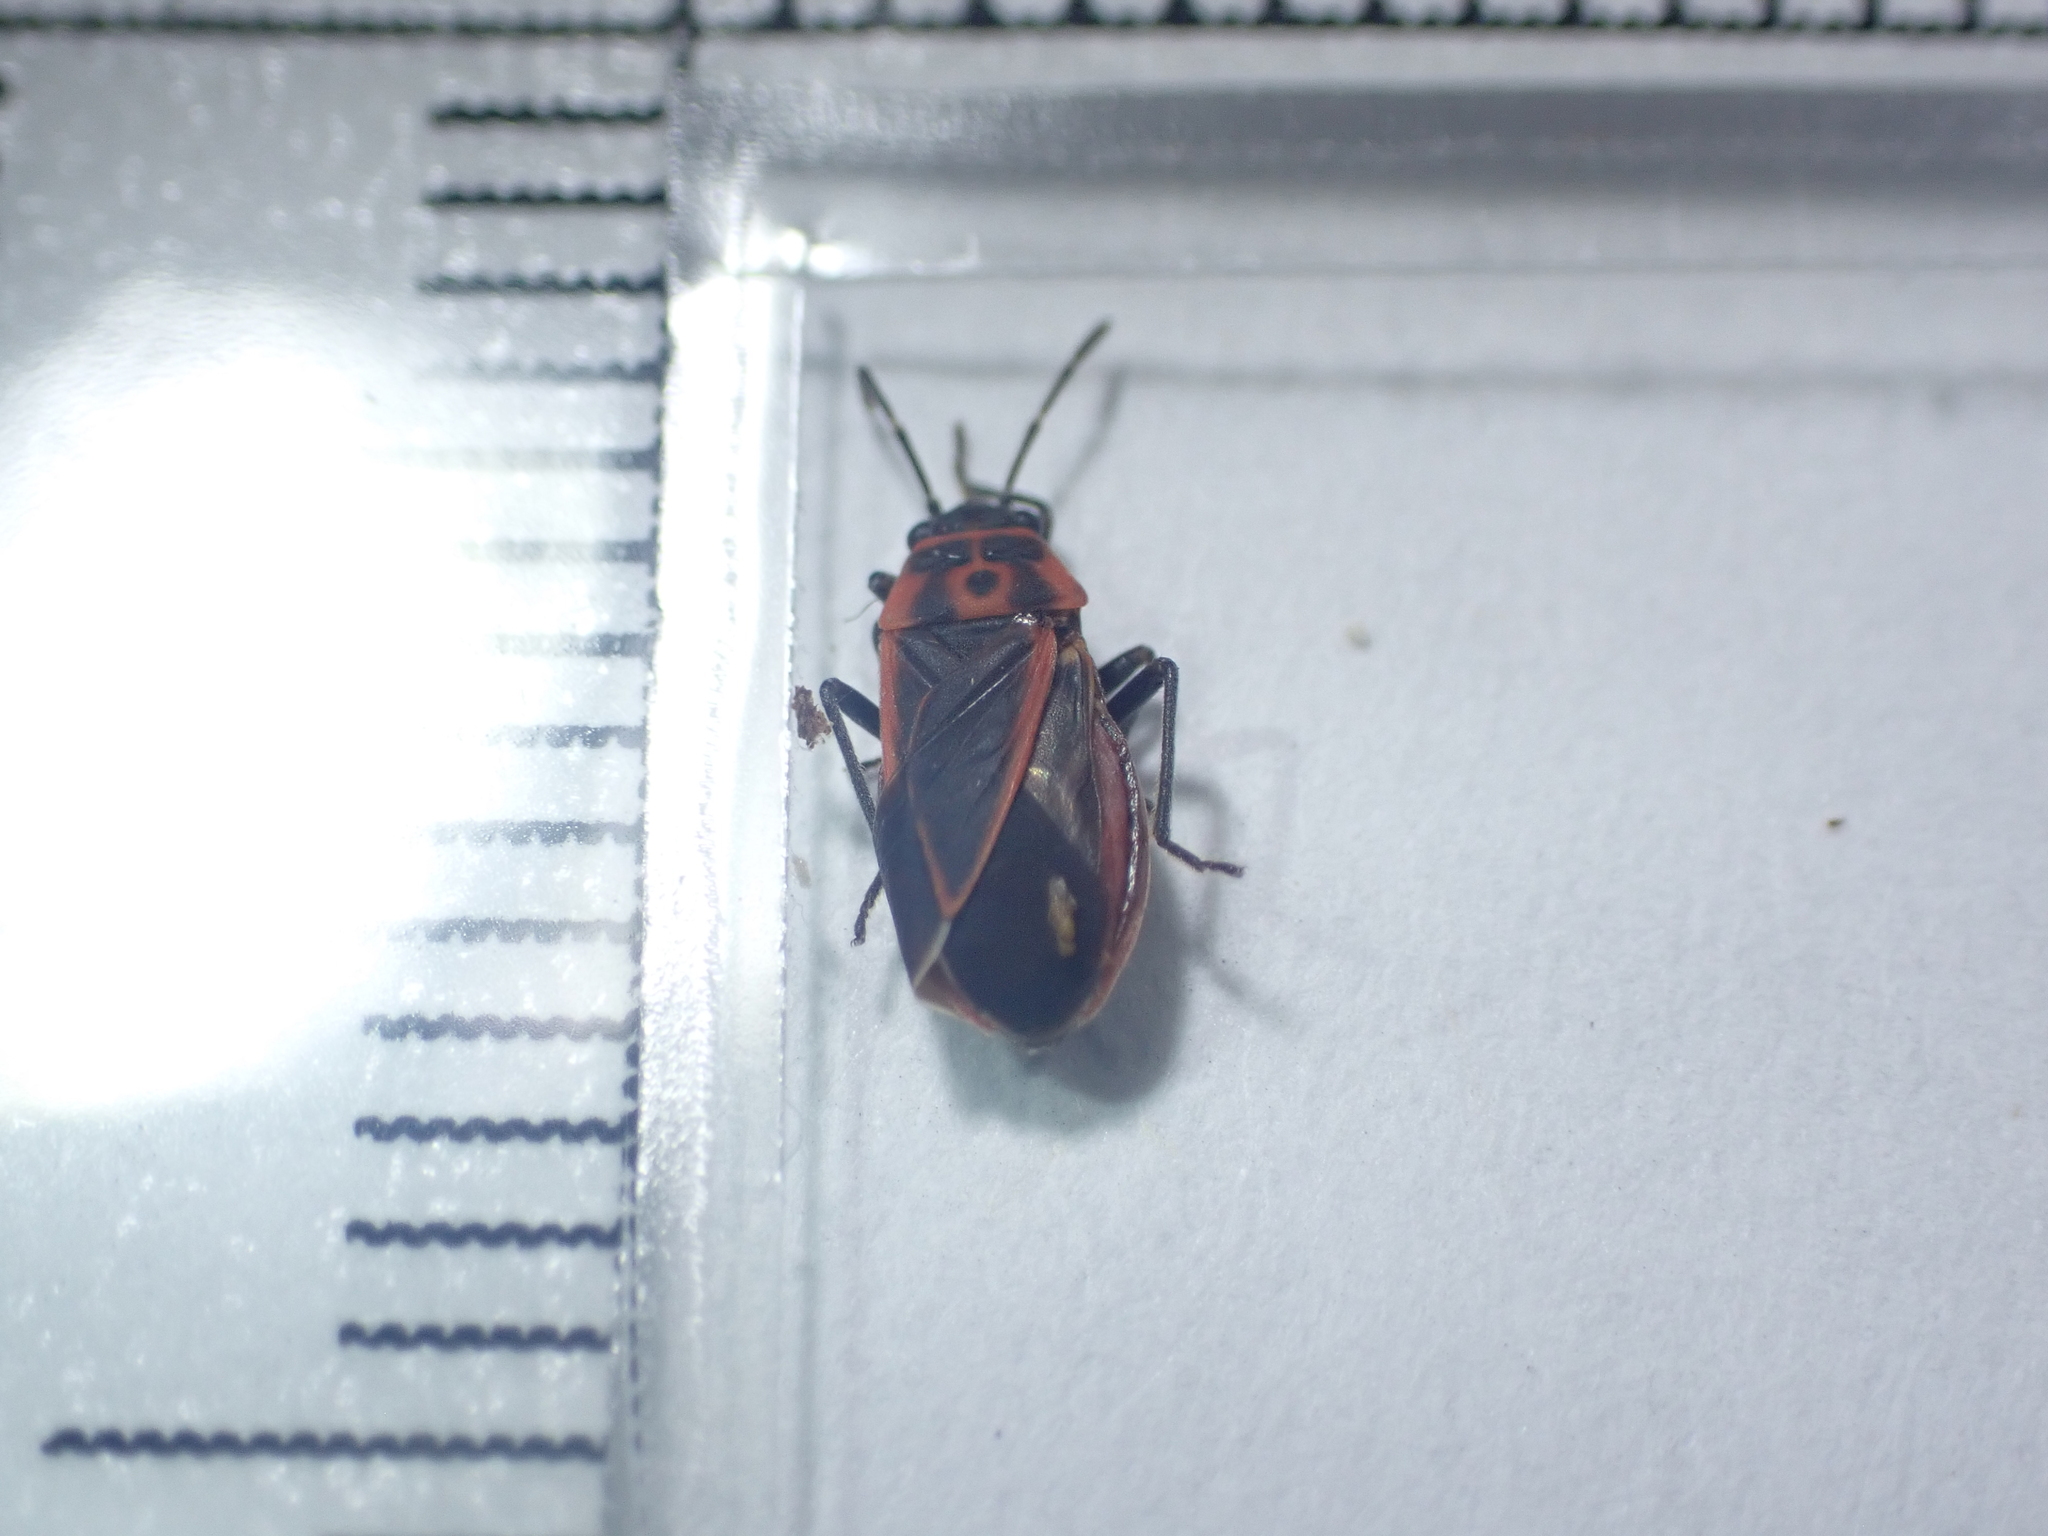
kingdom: Animalia
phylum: Arthropoda
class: Insecta
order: Hemiptera
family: Lygaeidae
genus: Ochrimnus
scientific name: Ochrimnus lineoloides
